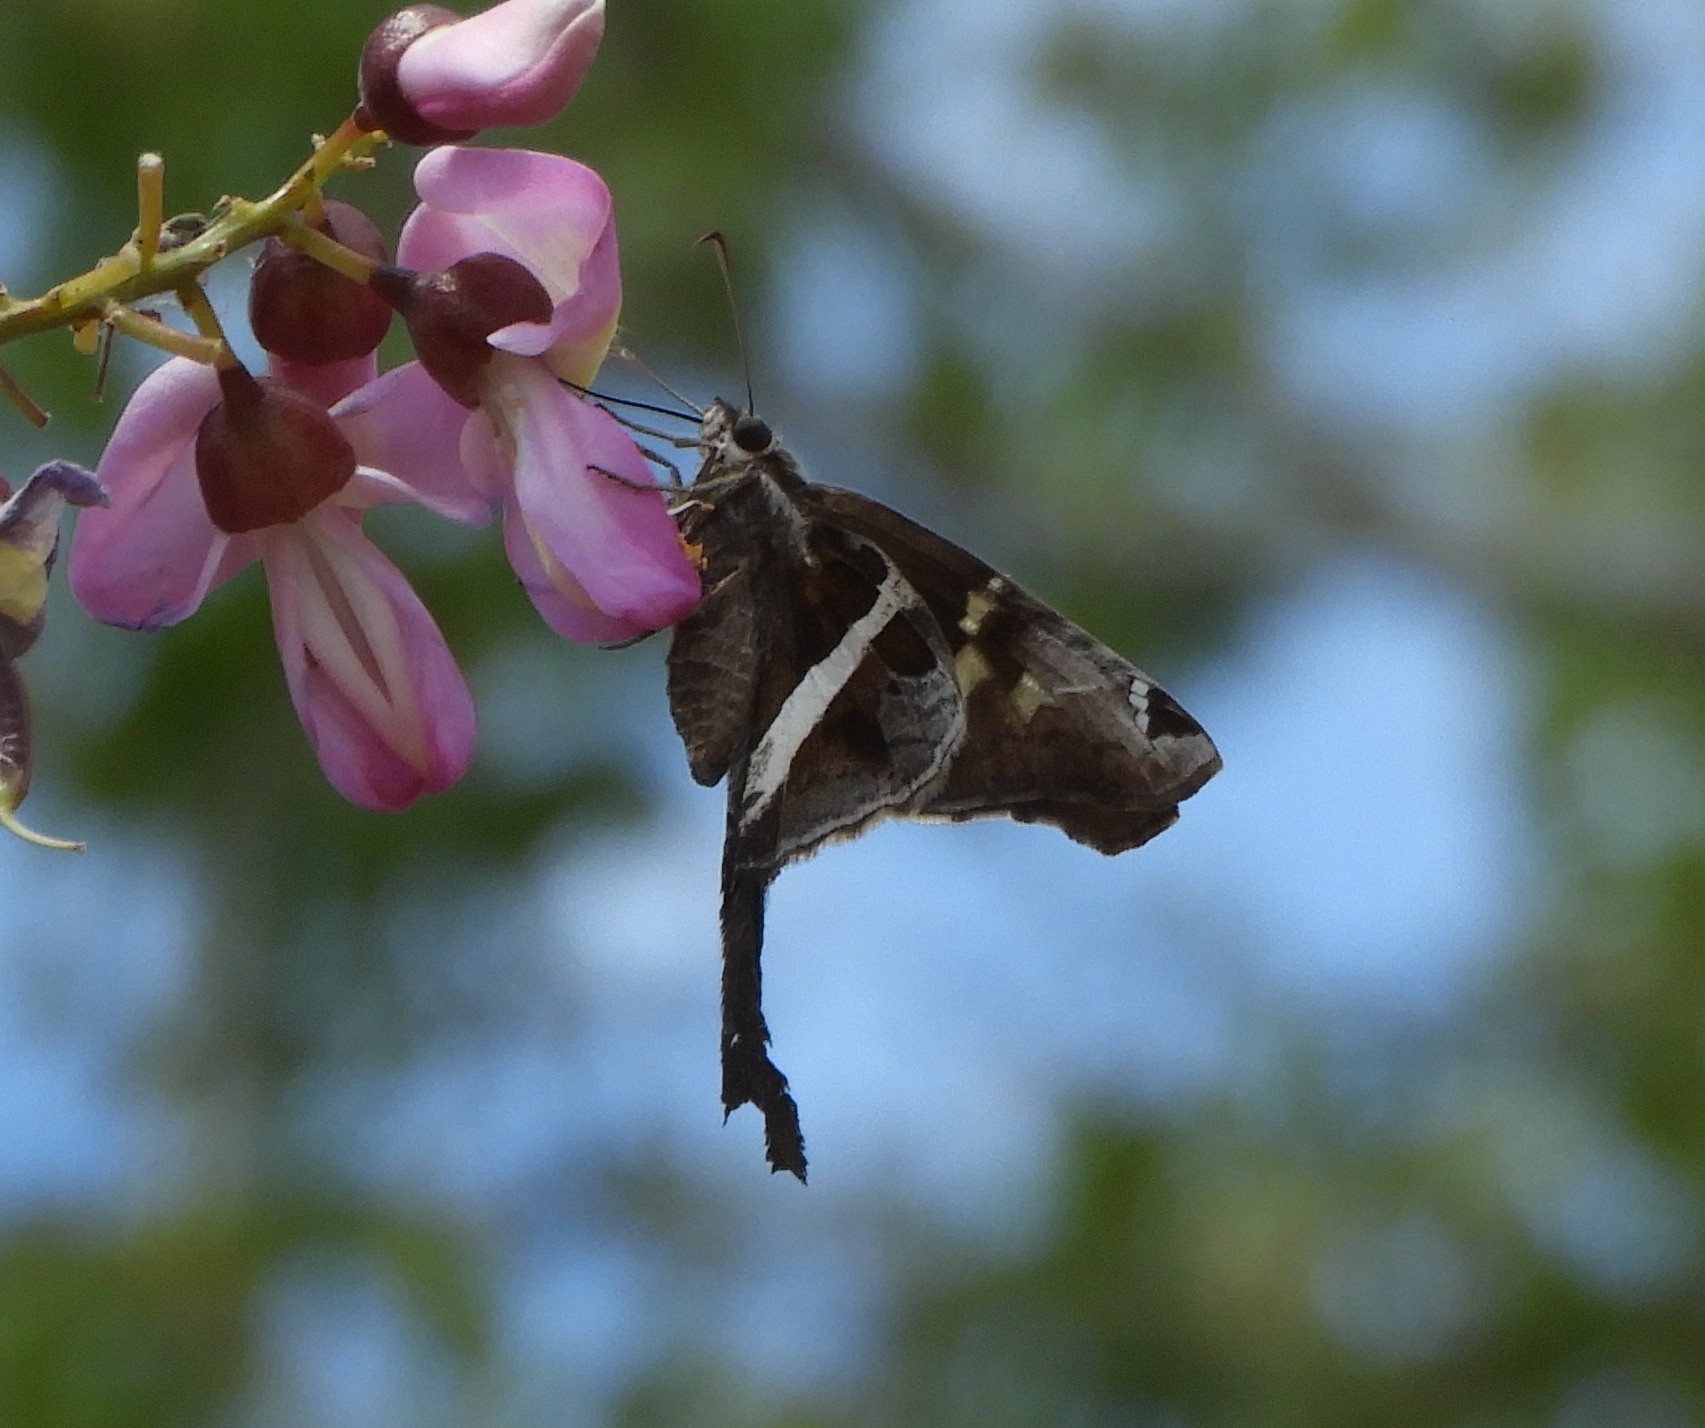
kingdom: Animalia
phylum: Arthropoda
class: Insecta
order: Lepidoptera
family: Hesperiidae
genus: Chioides
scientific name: Chioides catillus
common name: Silverbanded skipper
